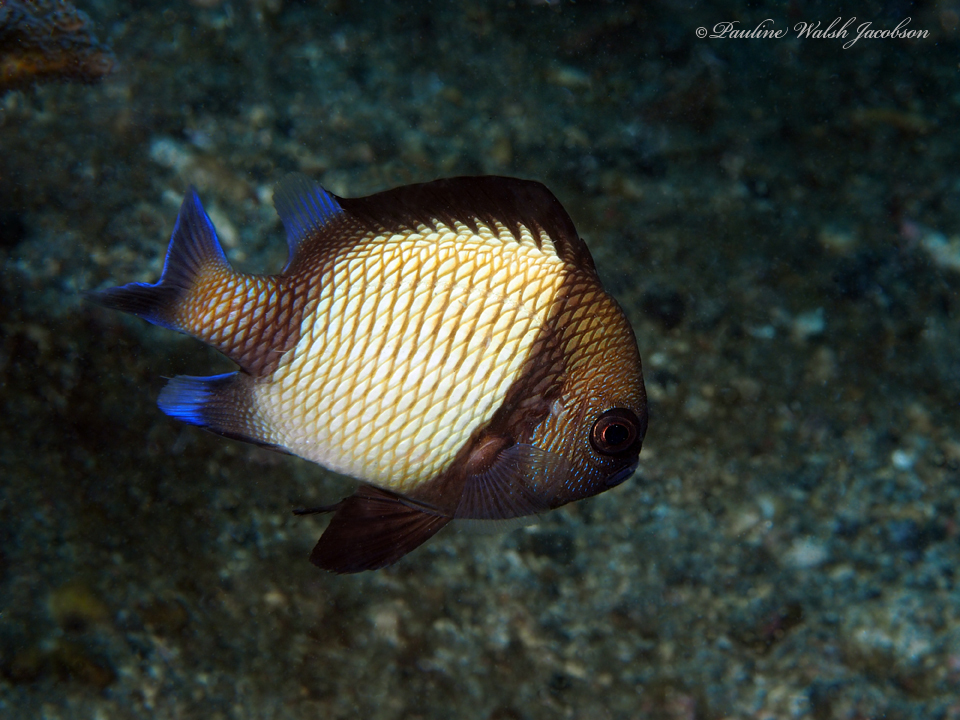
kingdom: Animalia
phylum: Chordata
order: Perciformes
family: Pomacentridae
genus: Dascyllus
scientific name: Dascyllus reticulatus
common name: Reticulated dascyllus
